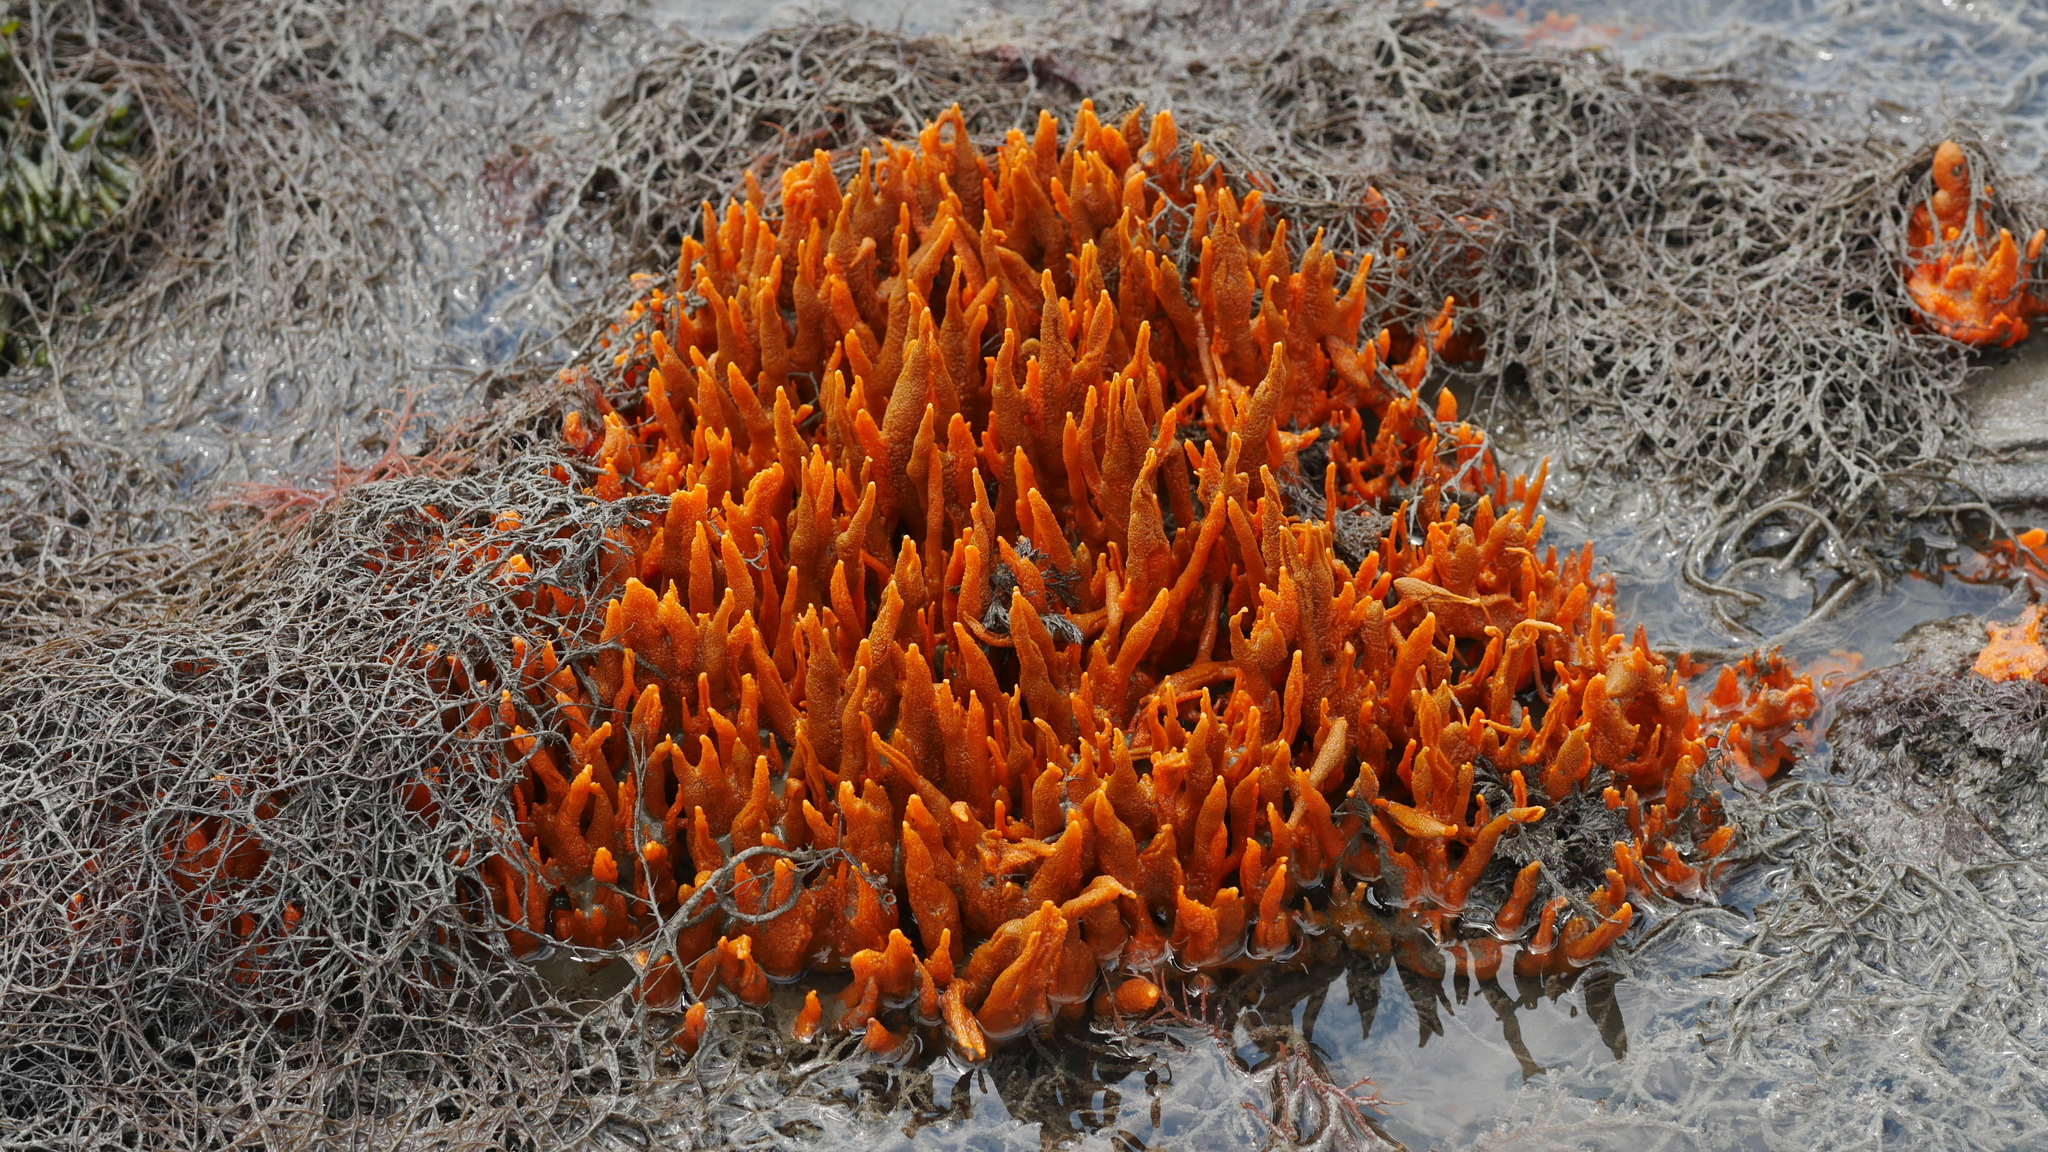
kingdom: Animalia
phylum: Porifera
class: Demospongiae
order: Suberitida
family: Halichondriidae
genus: Hymeniacidon
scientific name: Hymeniacidon heliophila
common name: Diurnal horny sponge
